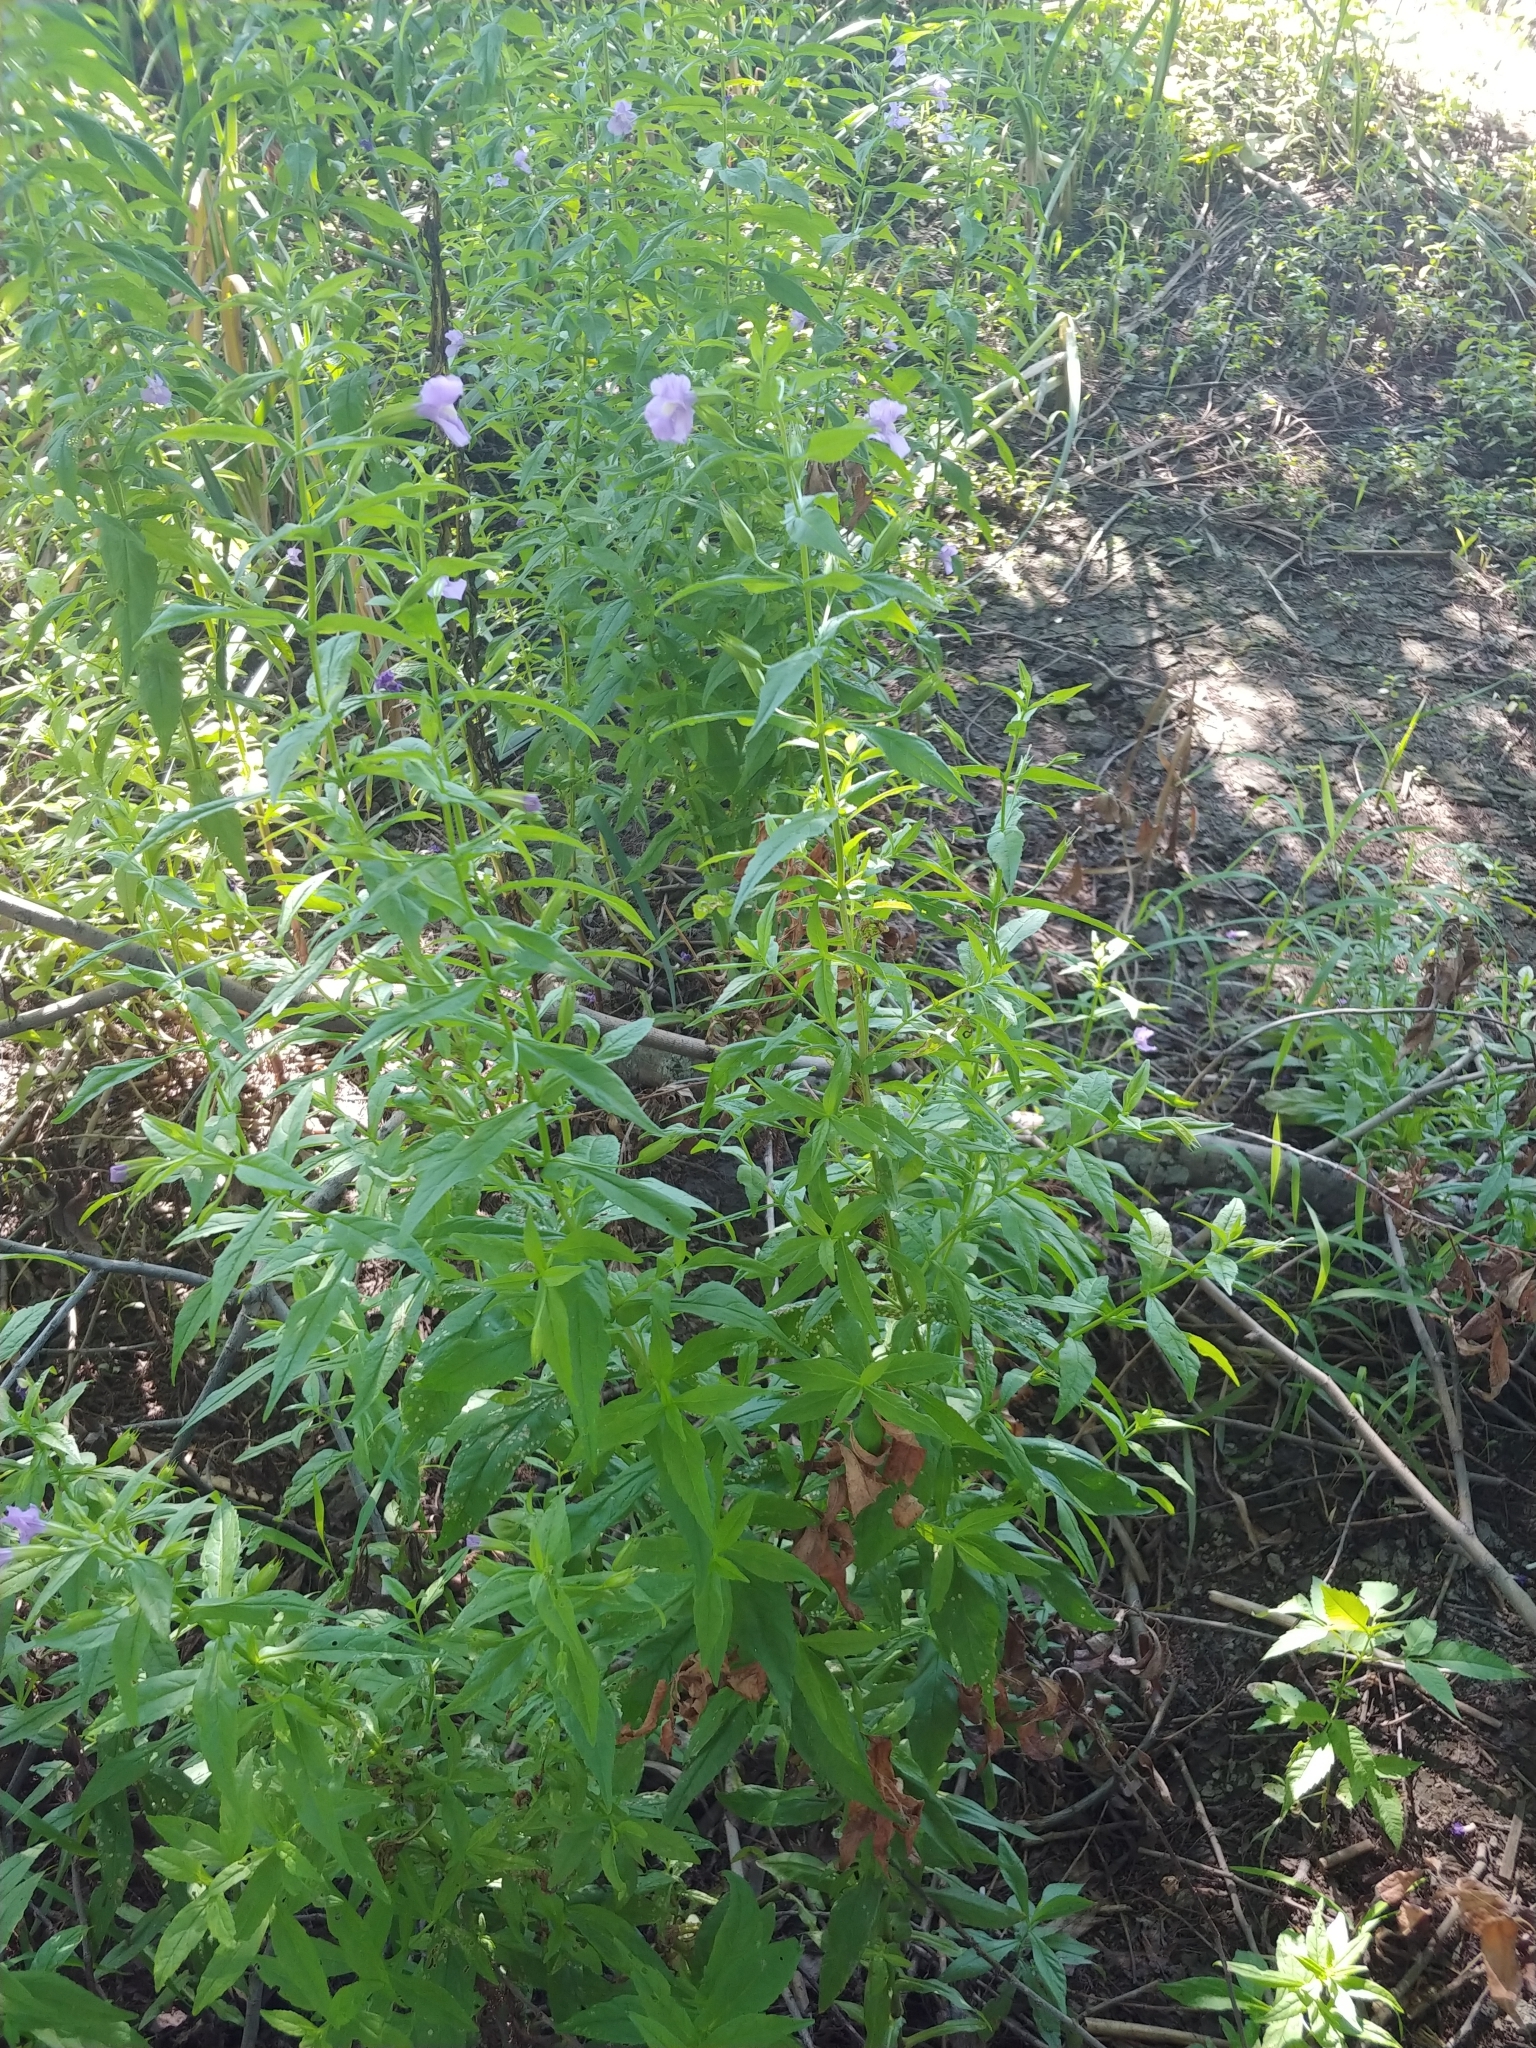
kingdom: Plantae
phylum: Tracheophyta
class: Magnoliopsida
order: Lamiales
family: Phrymaceae
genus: Mimulus
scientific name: Mimulus ringens
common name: Allegheny monkeyflower
